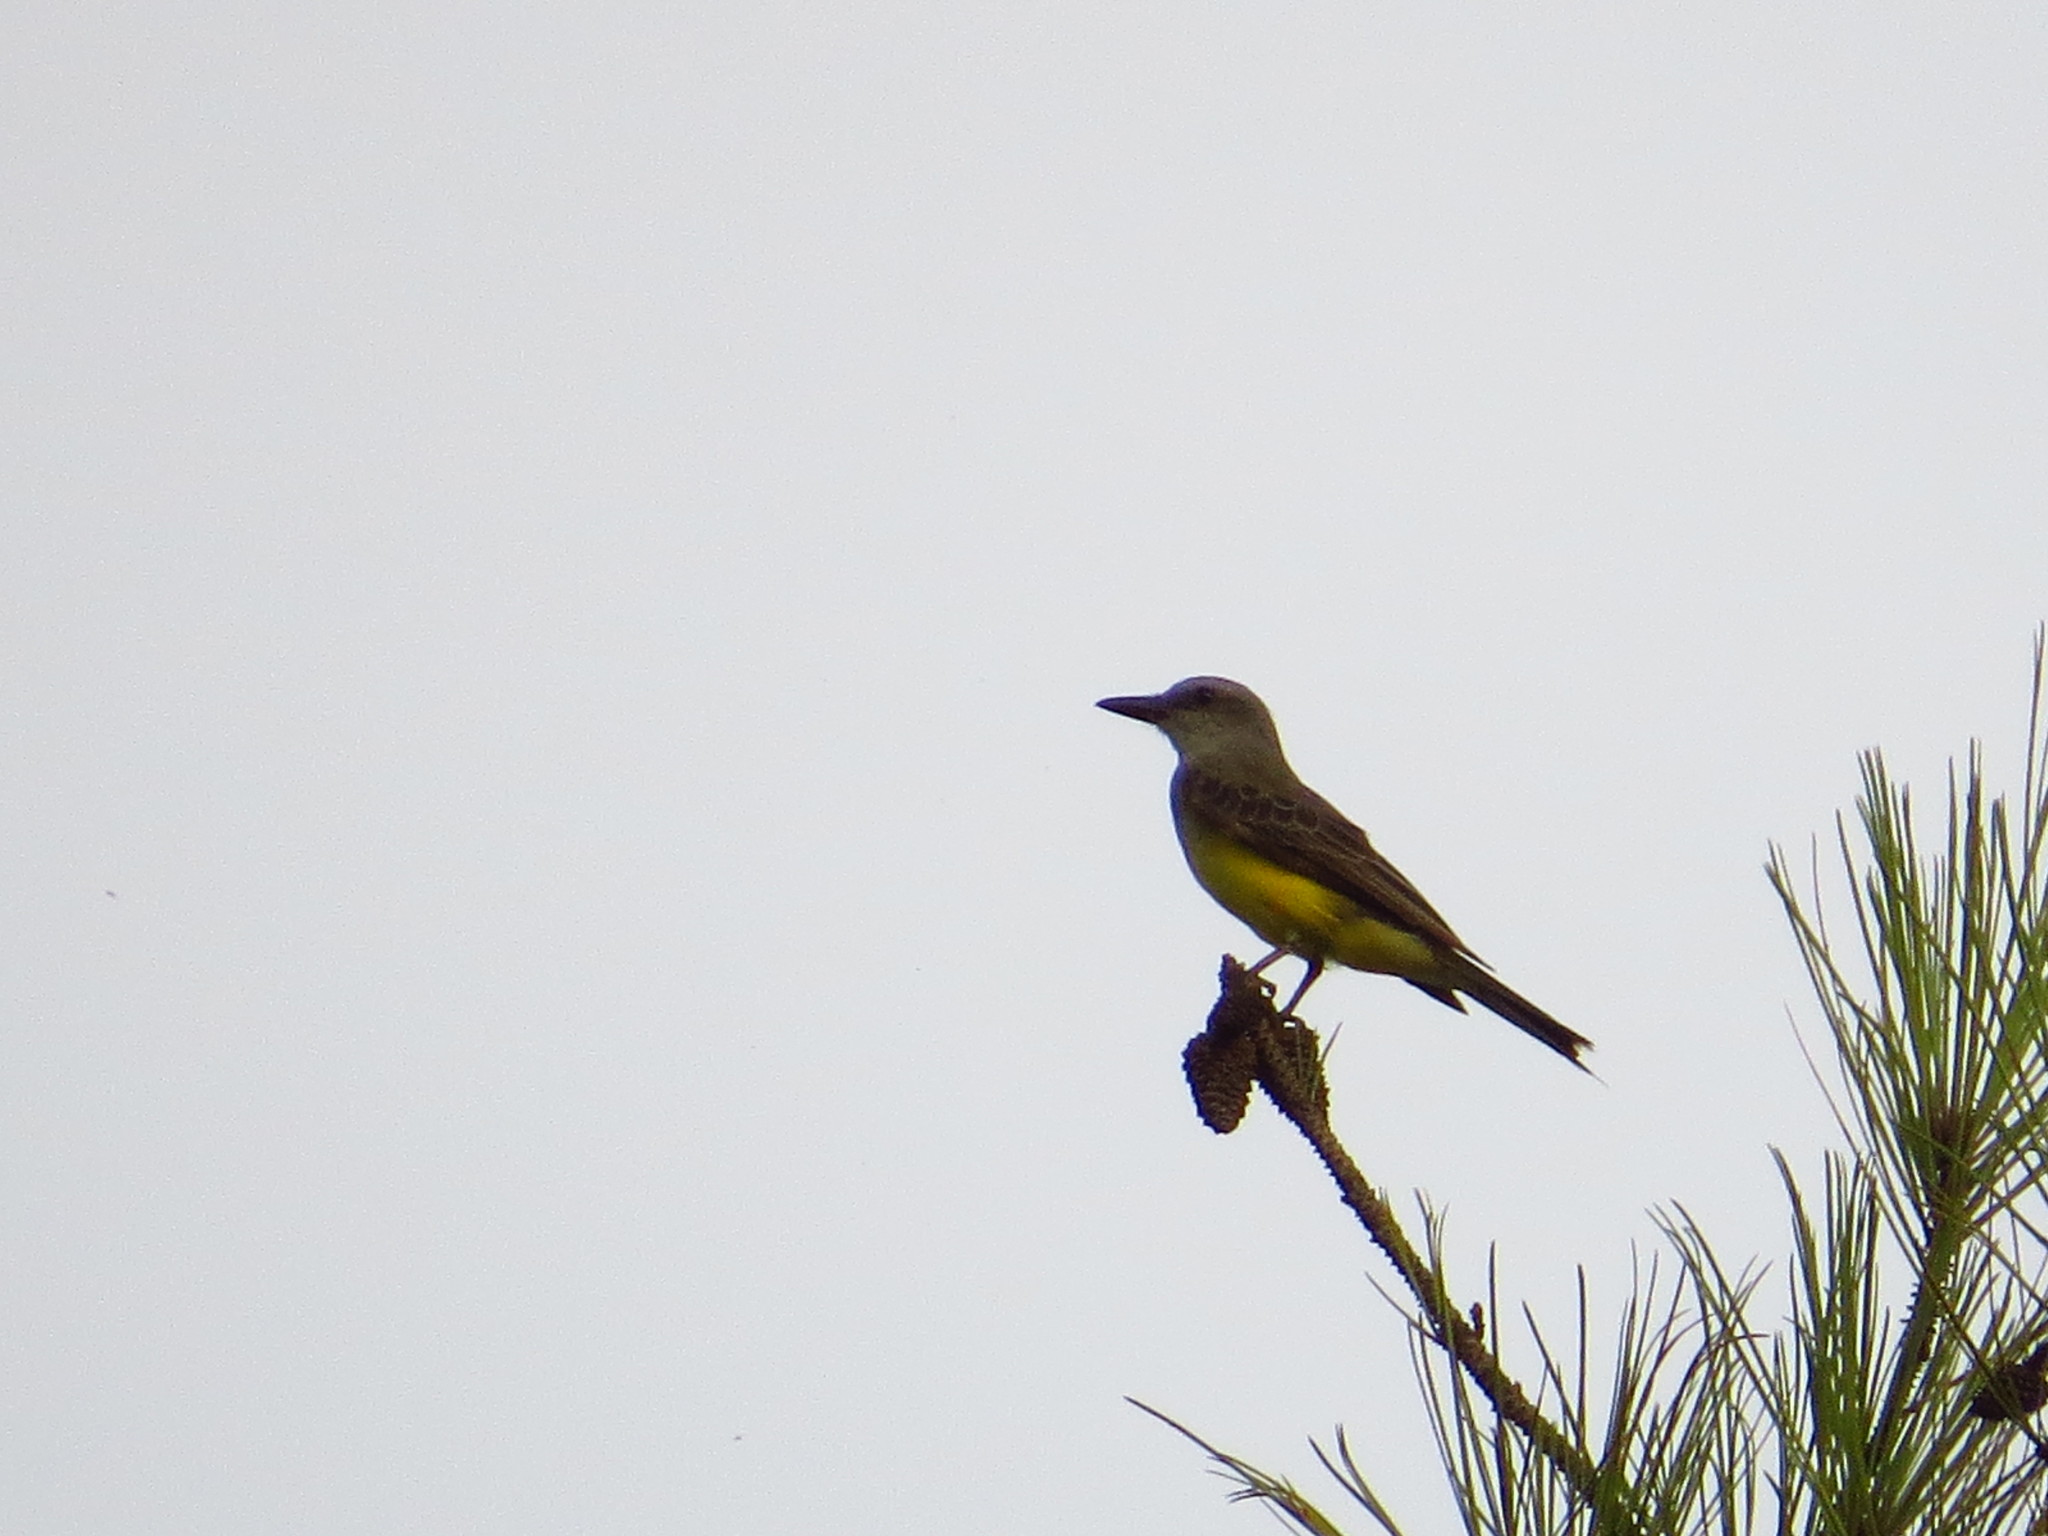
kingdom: Animalia
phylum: Chordata
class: Aves
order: Passeriformes
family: Tyrannidae
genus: Tyrannus
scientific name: Tyrannus melancholicus
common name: Tropical kingbird
